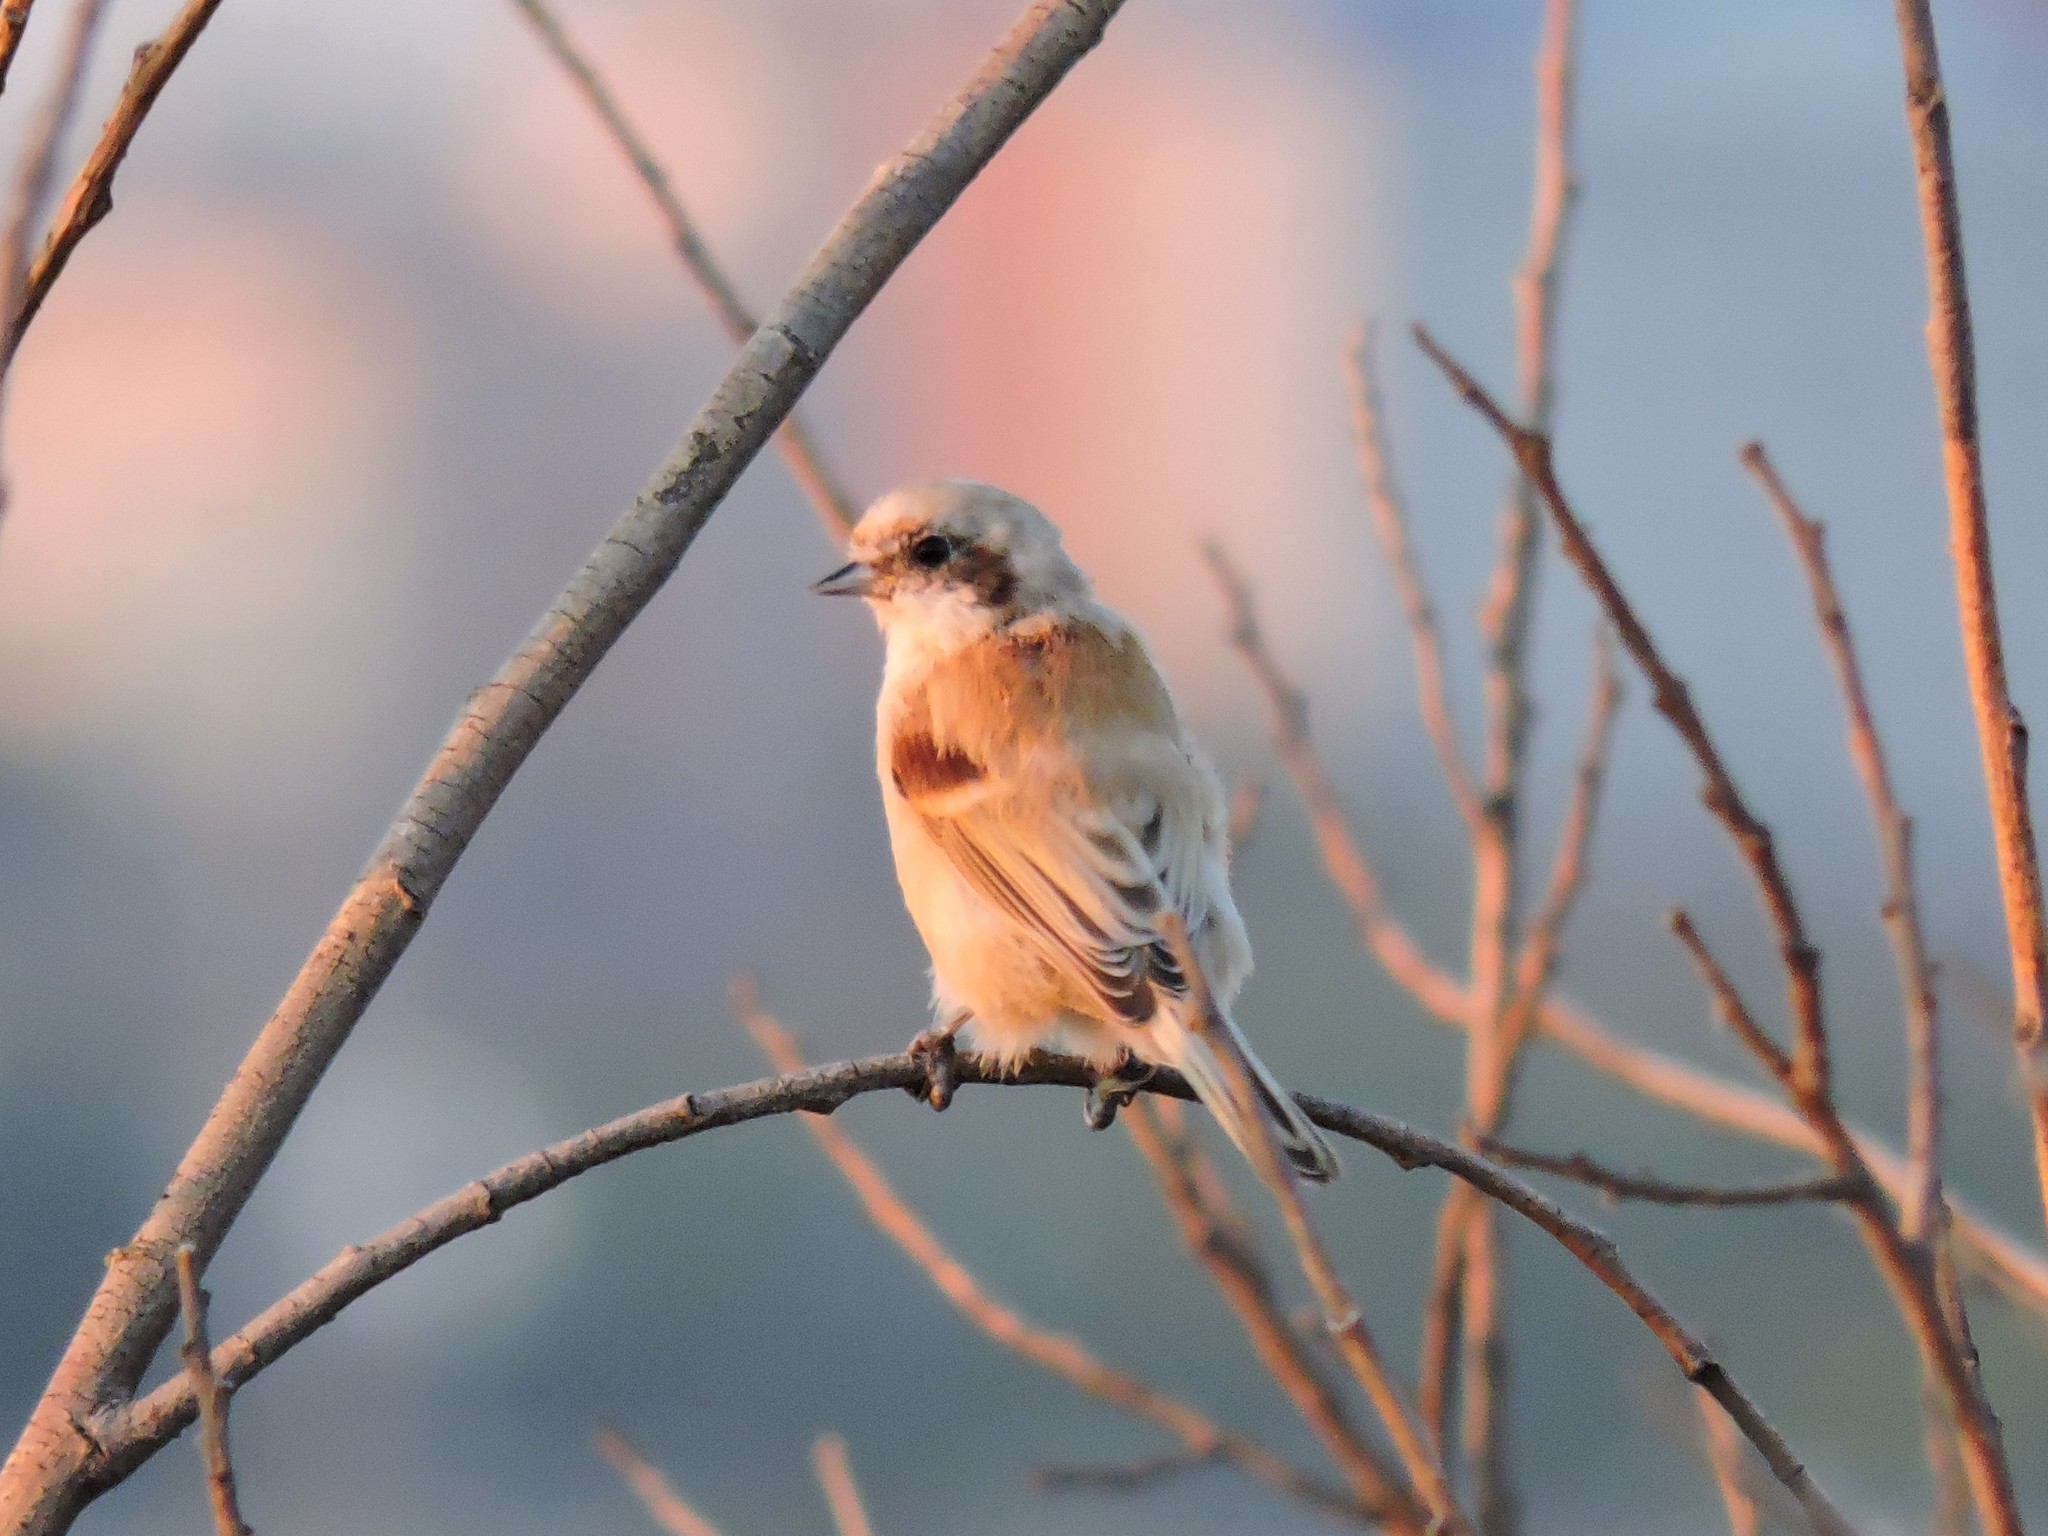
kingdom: Animalia
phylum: Chordata
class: Aves
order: Passeriformes
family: Remizidae
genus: Remiz
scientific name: Remiz pendulinus
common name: Eurasian penduline tit
